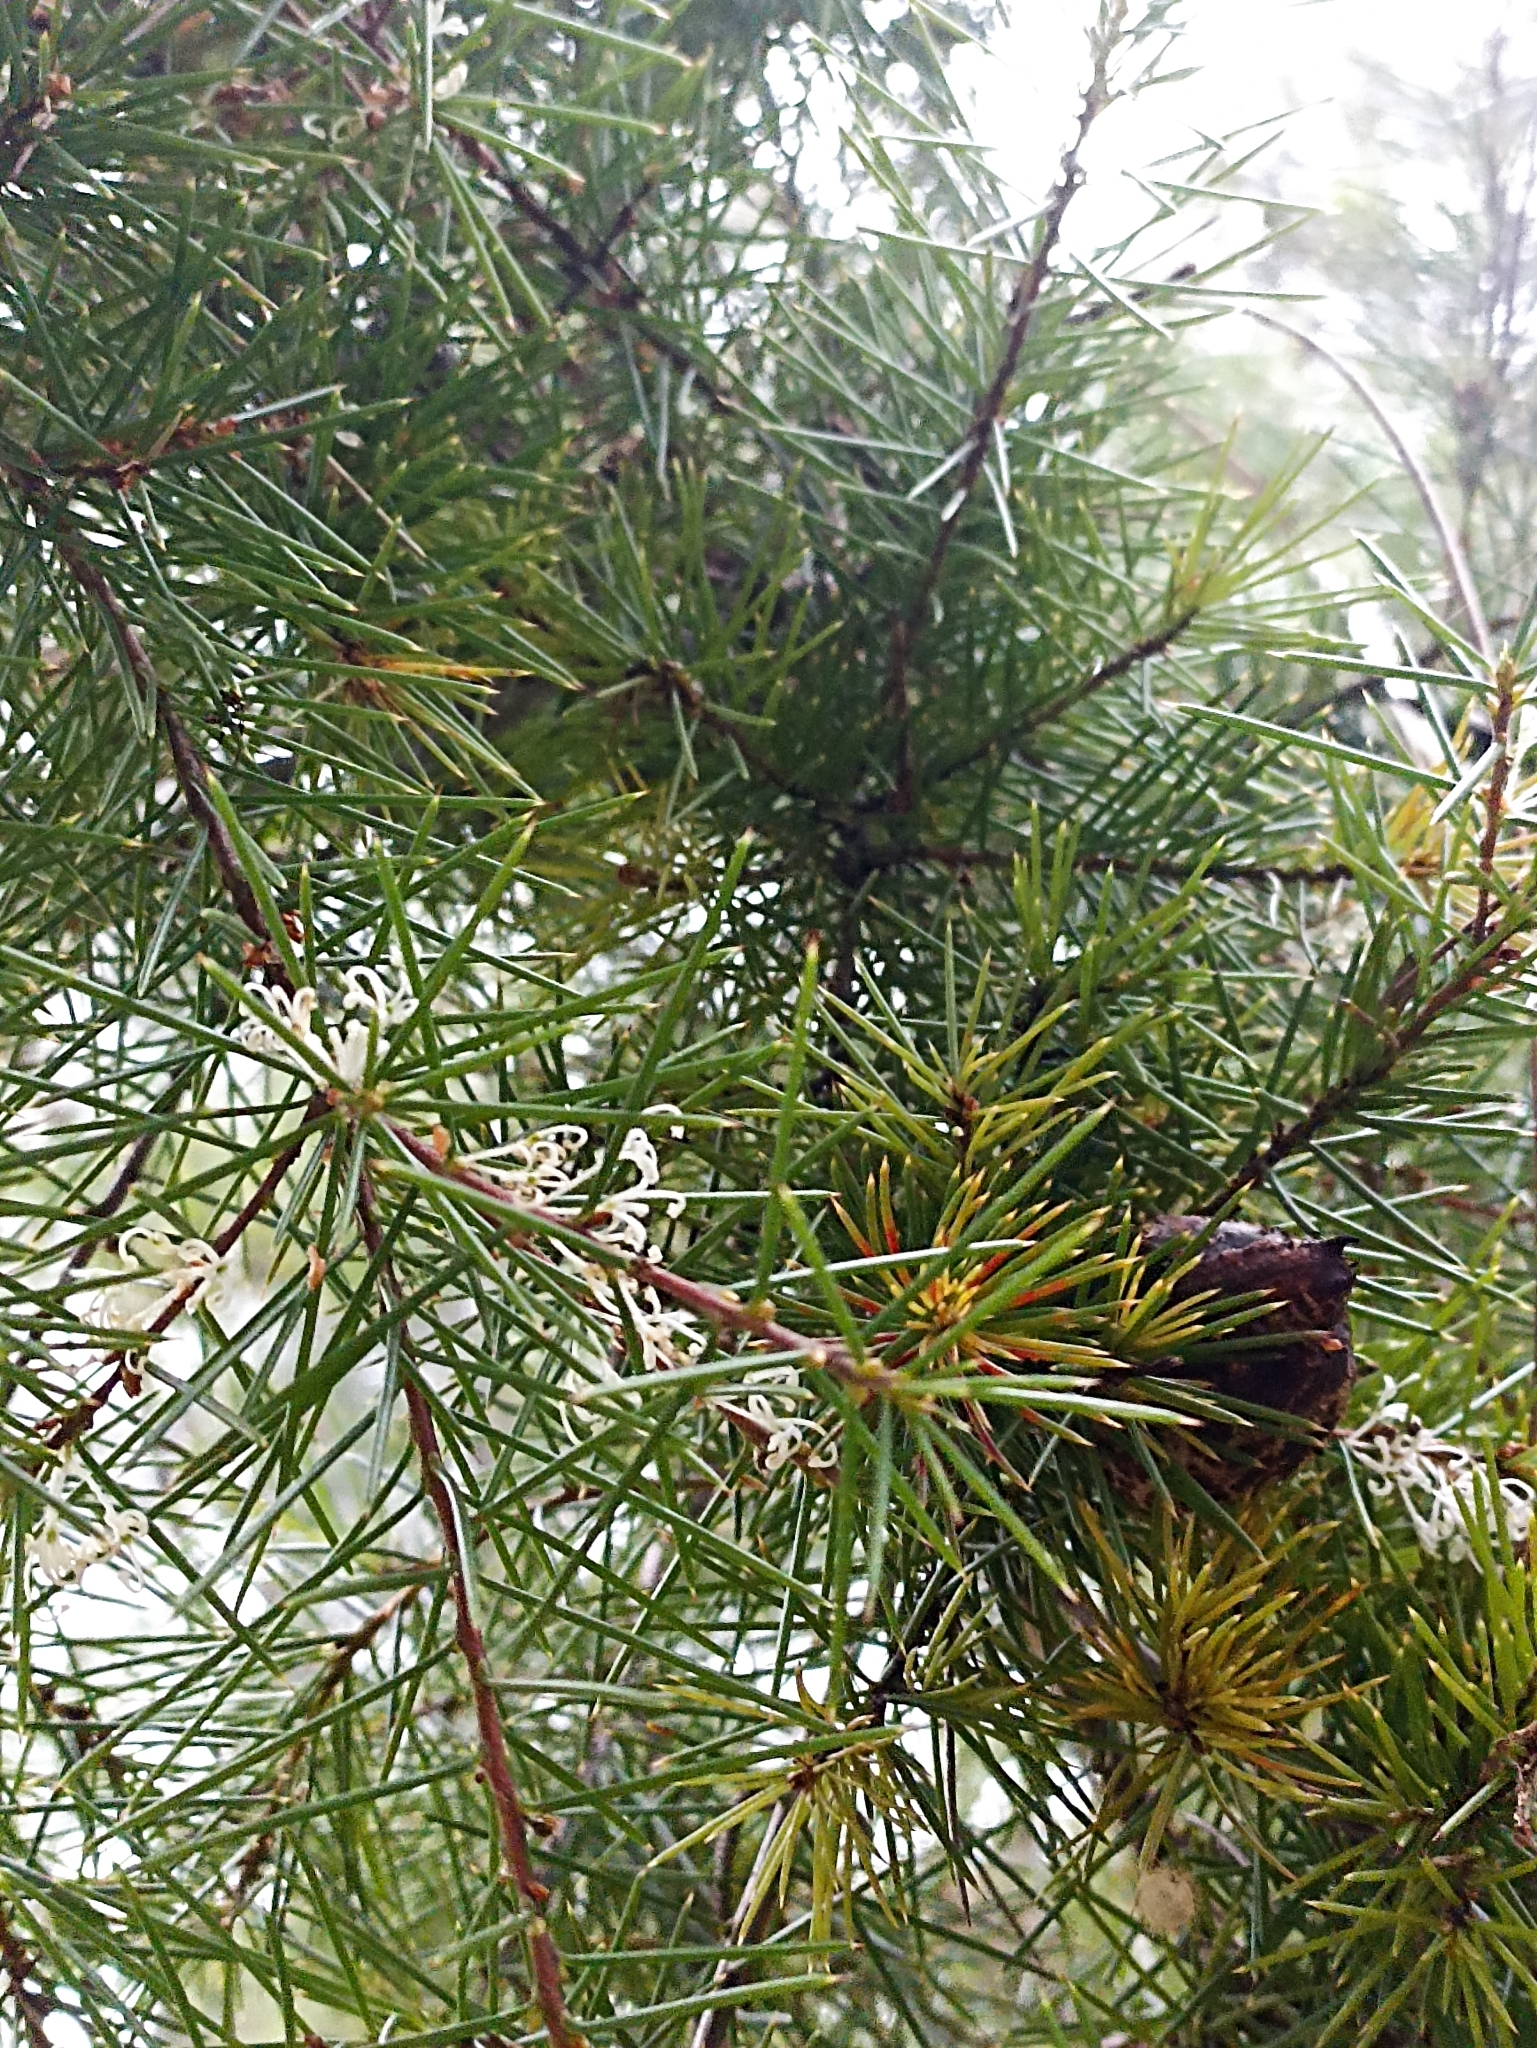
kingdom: Plantae
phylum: Tracheophyta
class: Magnoliopsida
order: Proteales
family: Proteaceae
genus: Hakea
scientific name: Hakea sericea
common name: Needle bush
